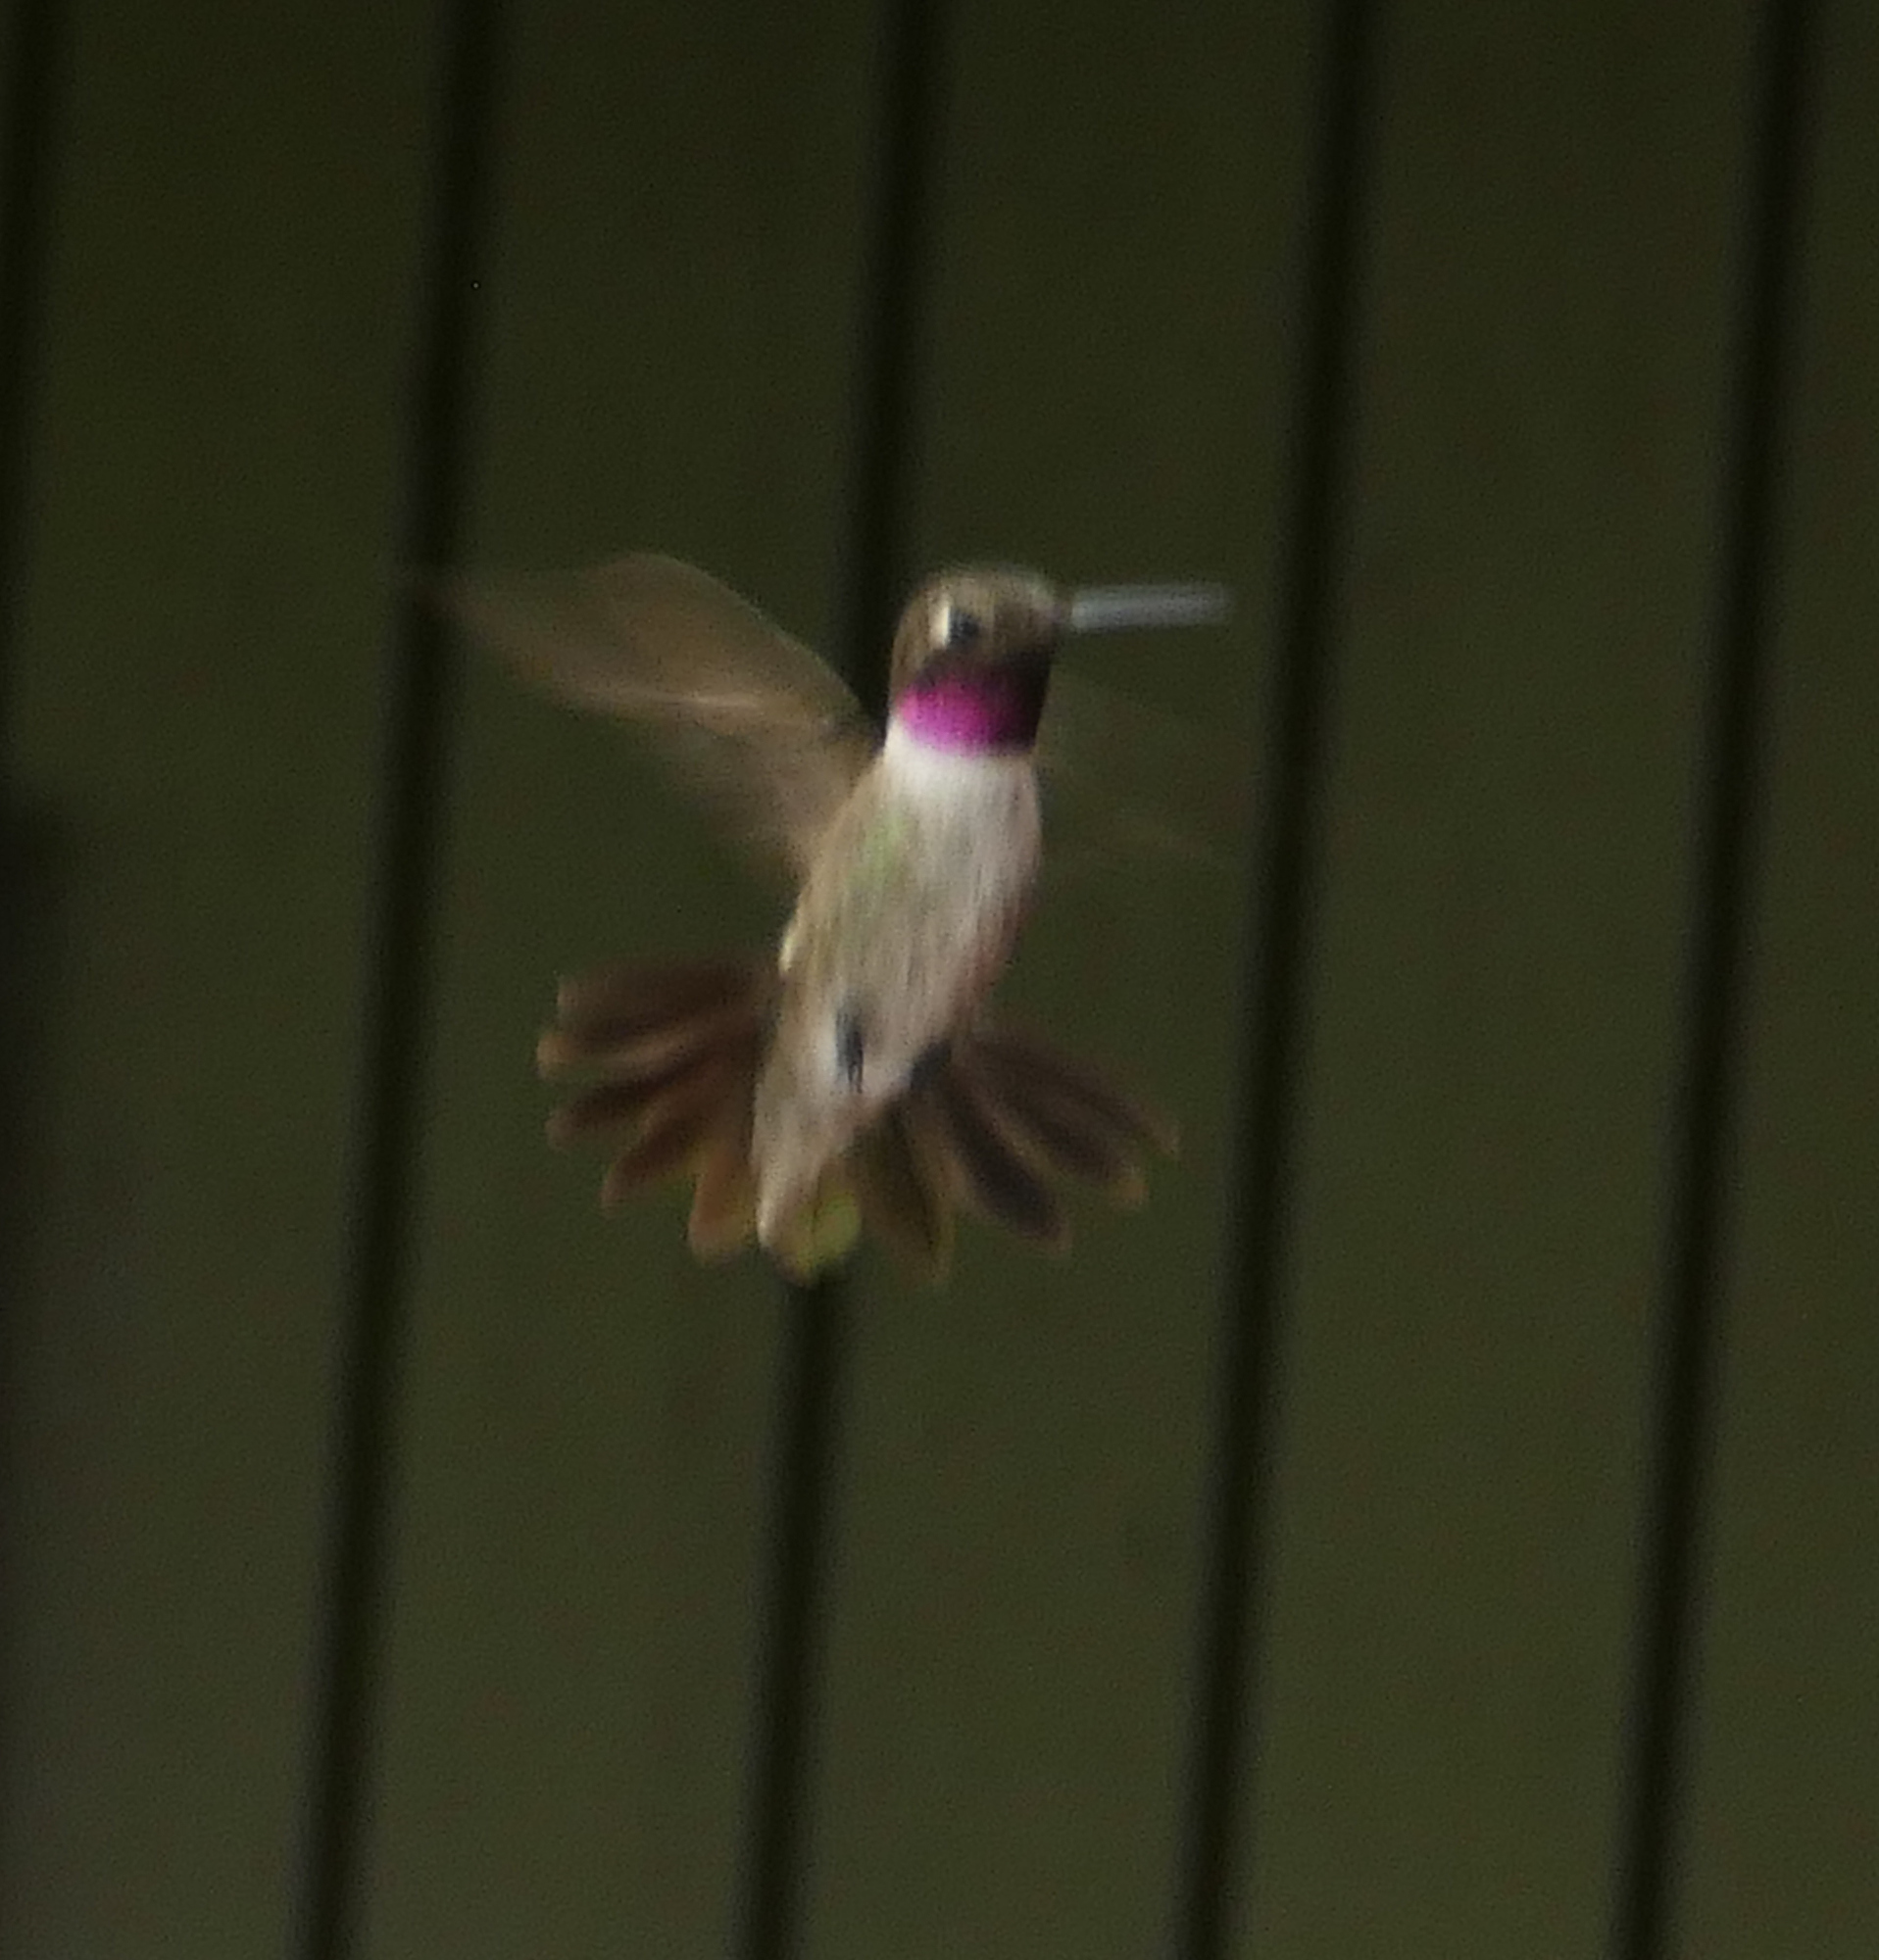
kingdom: Animalia
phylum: Chordata
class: Aves
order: Apodiformes
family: Trochilidae
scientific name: Trochilidae
